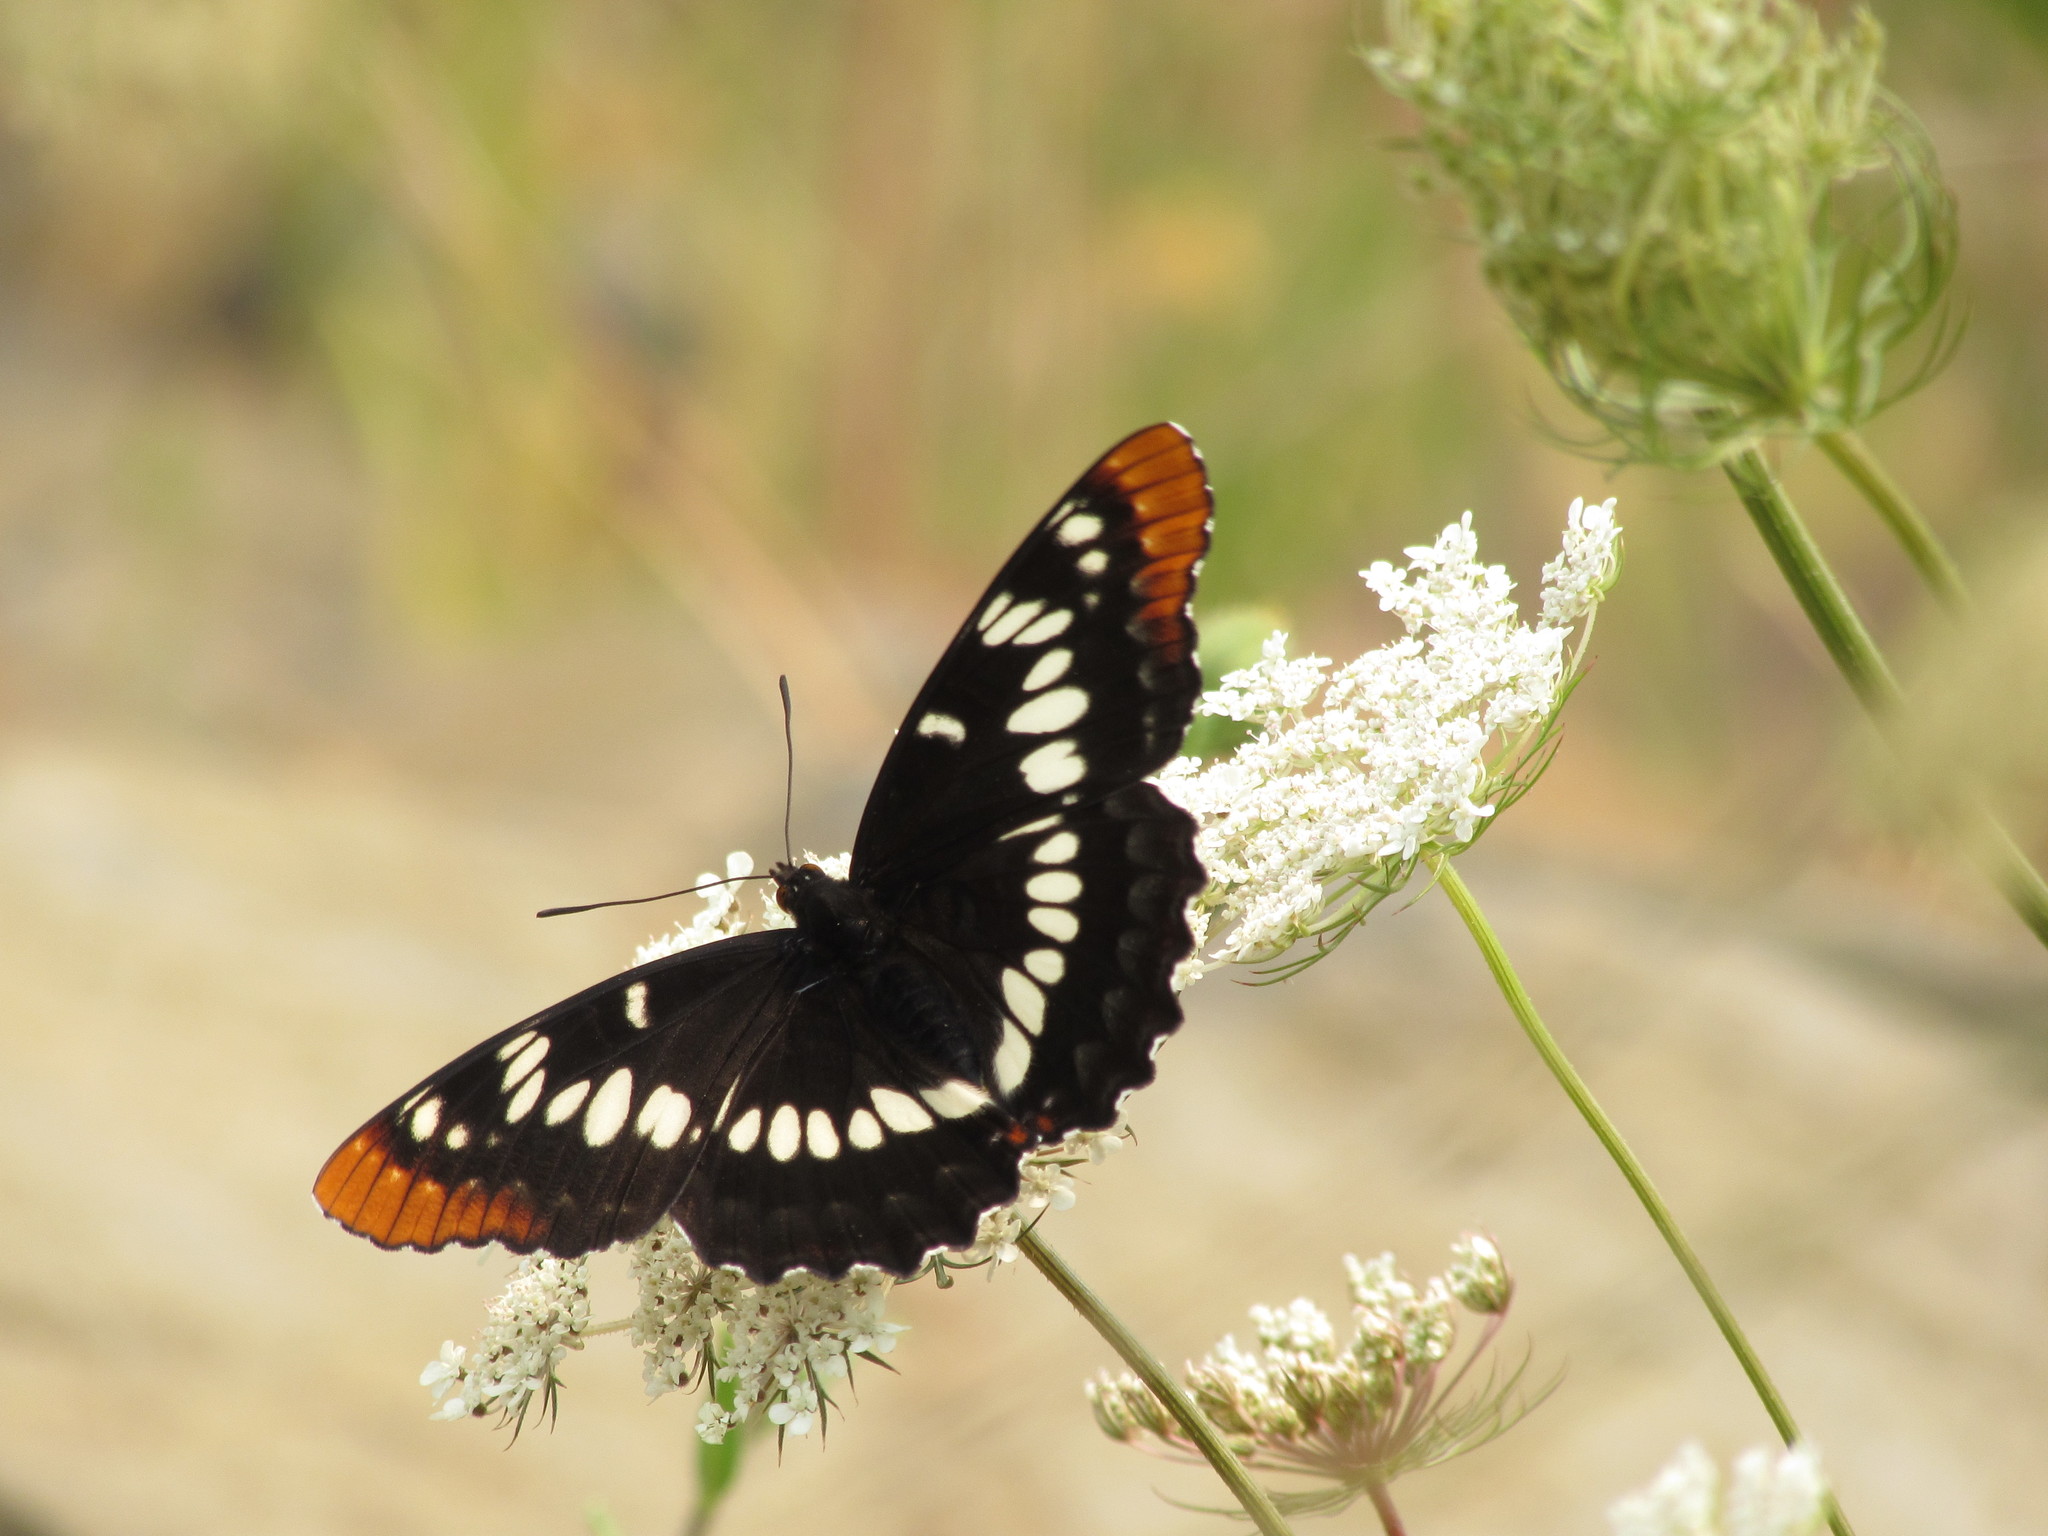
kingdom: Animalia
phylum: Arthropoda
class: Insecta
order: Lepidoptera
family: Nymphalidae
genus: Limenitis
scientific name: Limenitis lorquini
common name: Lorquin's admiral
